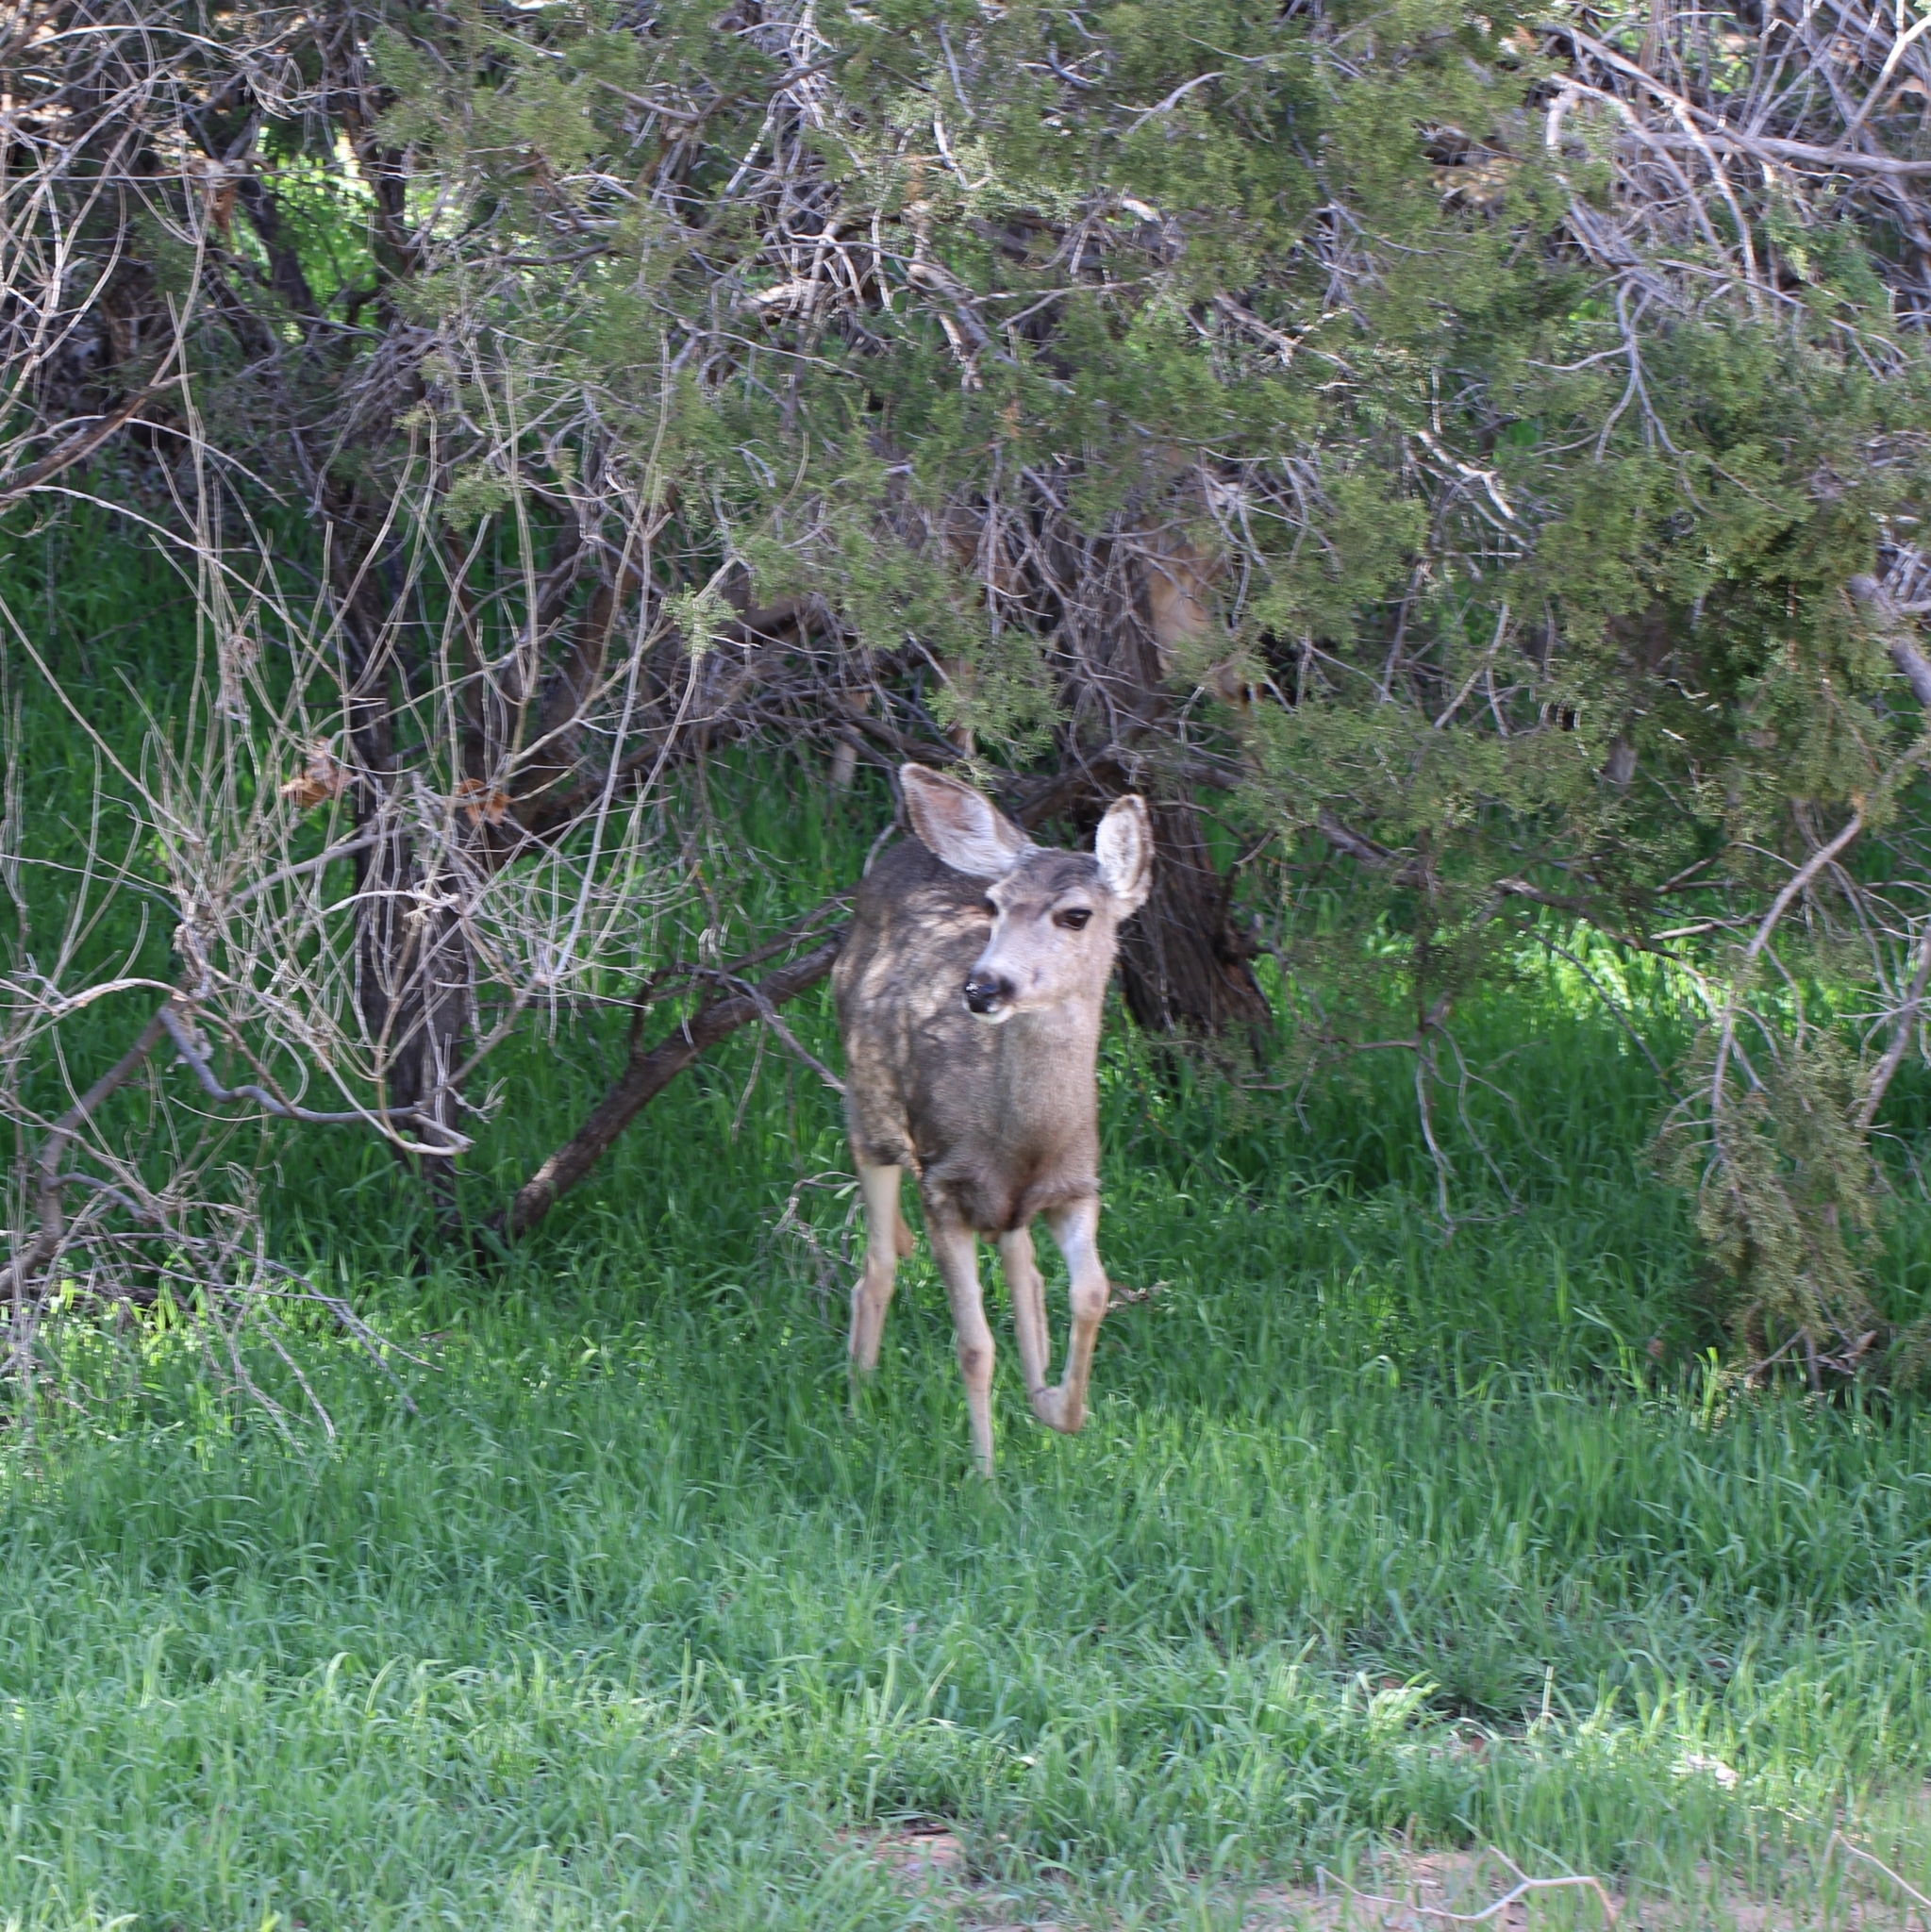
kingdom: Animalia
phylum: Chordata
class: Mammalia
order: Artiodactyla
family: Cervidae
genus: Odocoileus
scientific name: Odocoileus hemionus
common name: Mule deer
